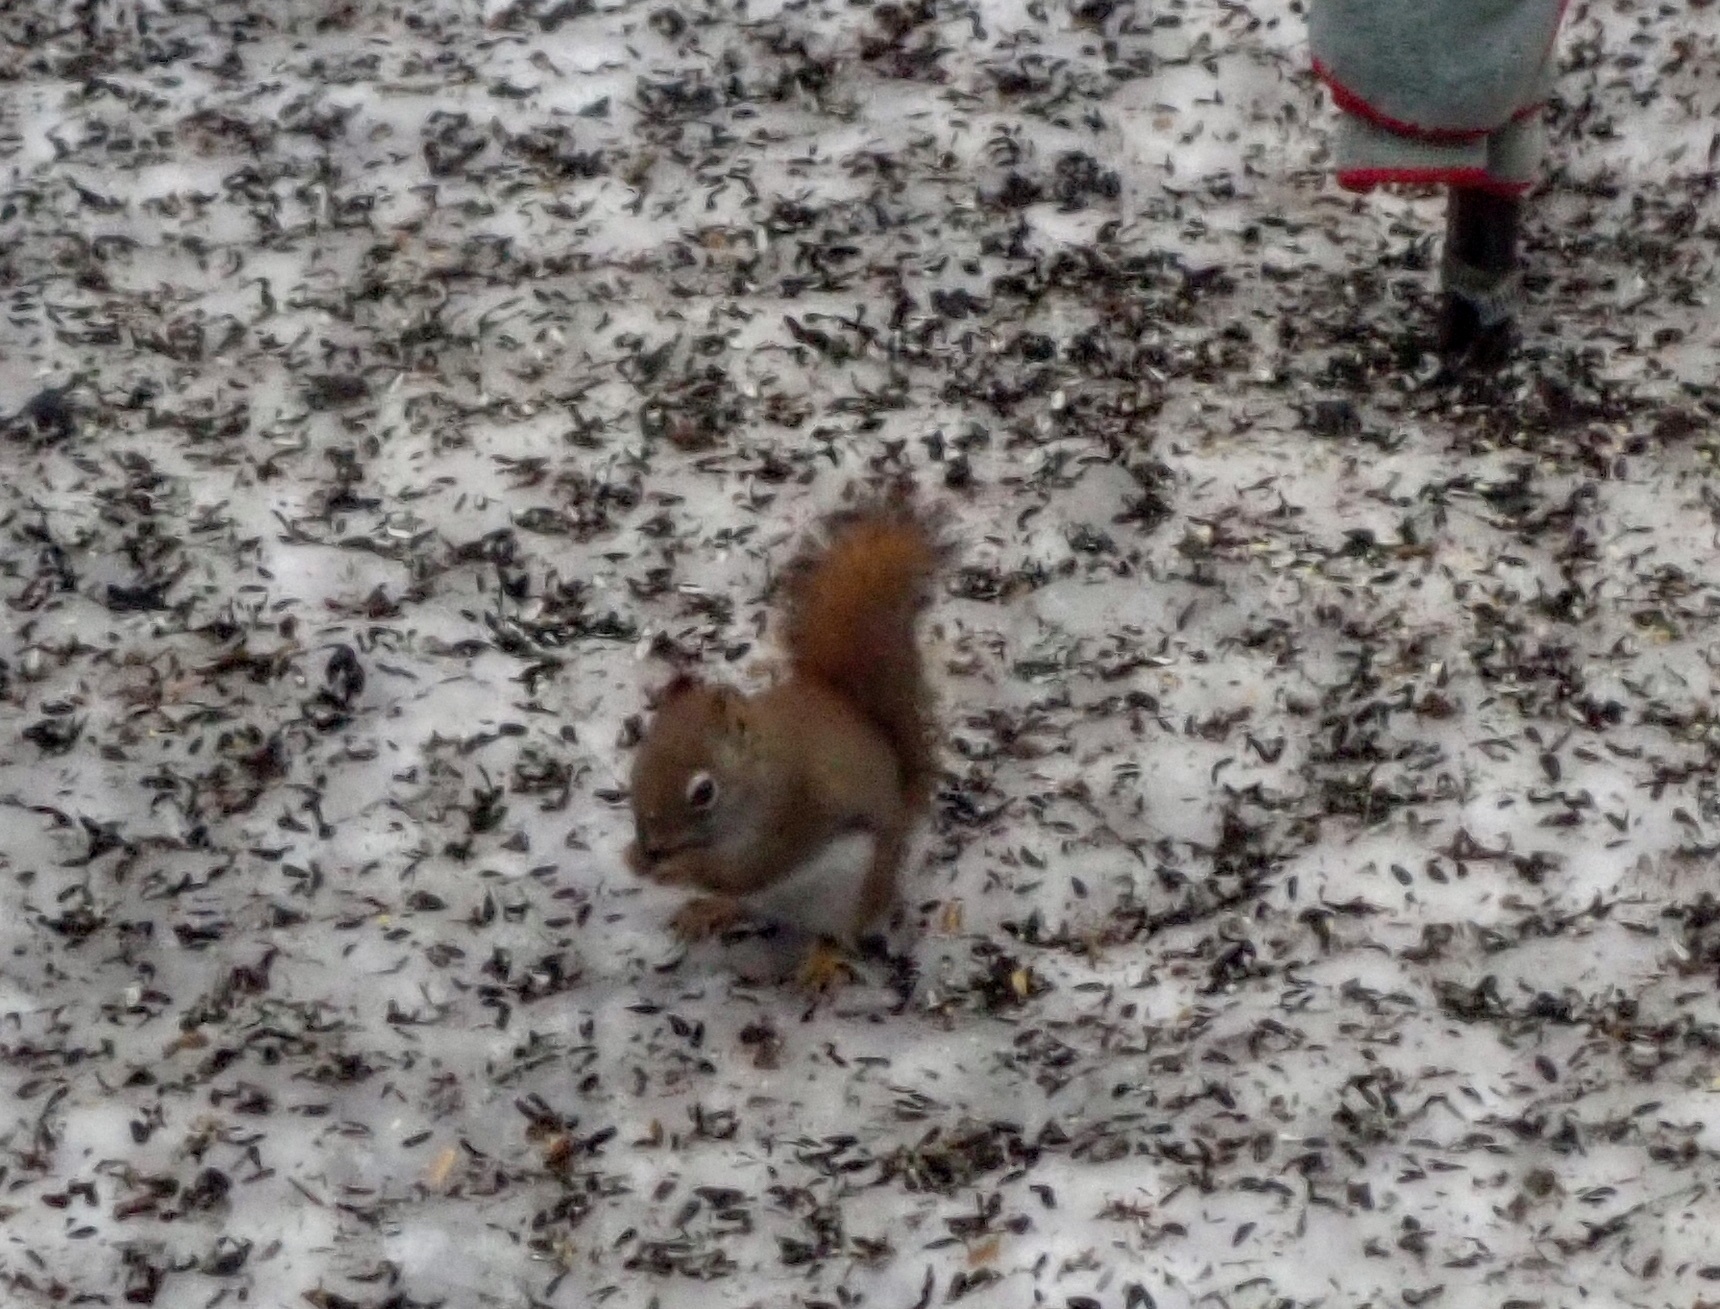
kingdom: Animalia
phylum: Chordata
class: Mammalia
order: Rodentia
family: Sciuridae
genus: Tamiasciurus
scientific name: Tamiasciurus hudsonicus
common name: Red squirrel
